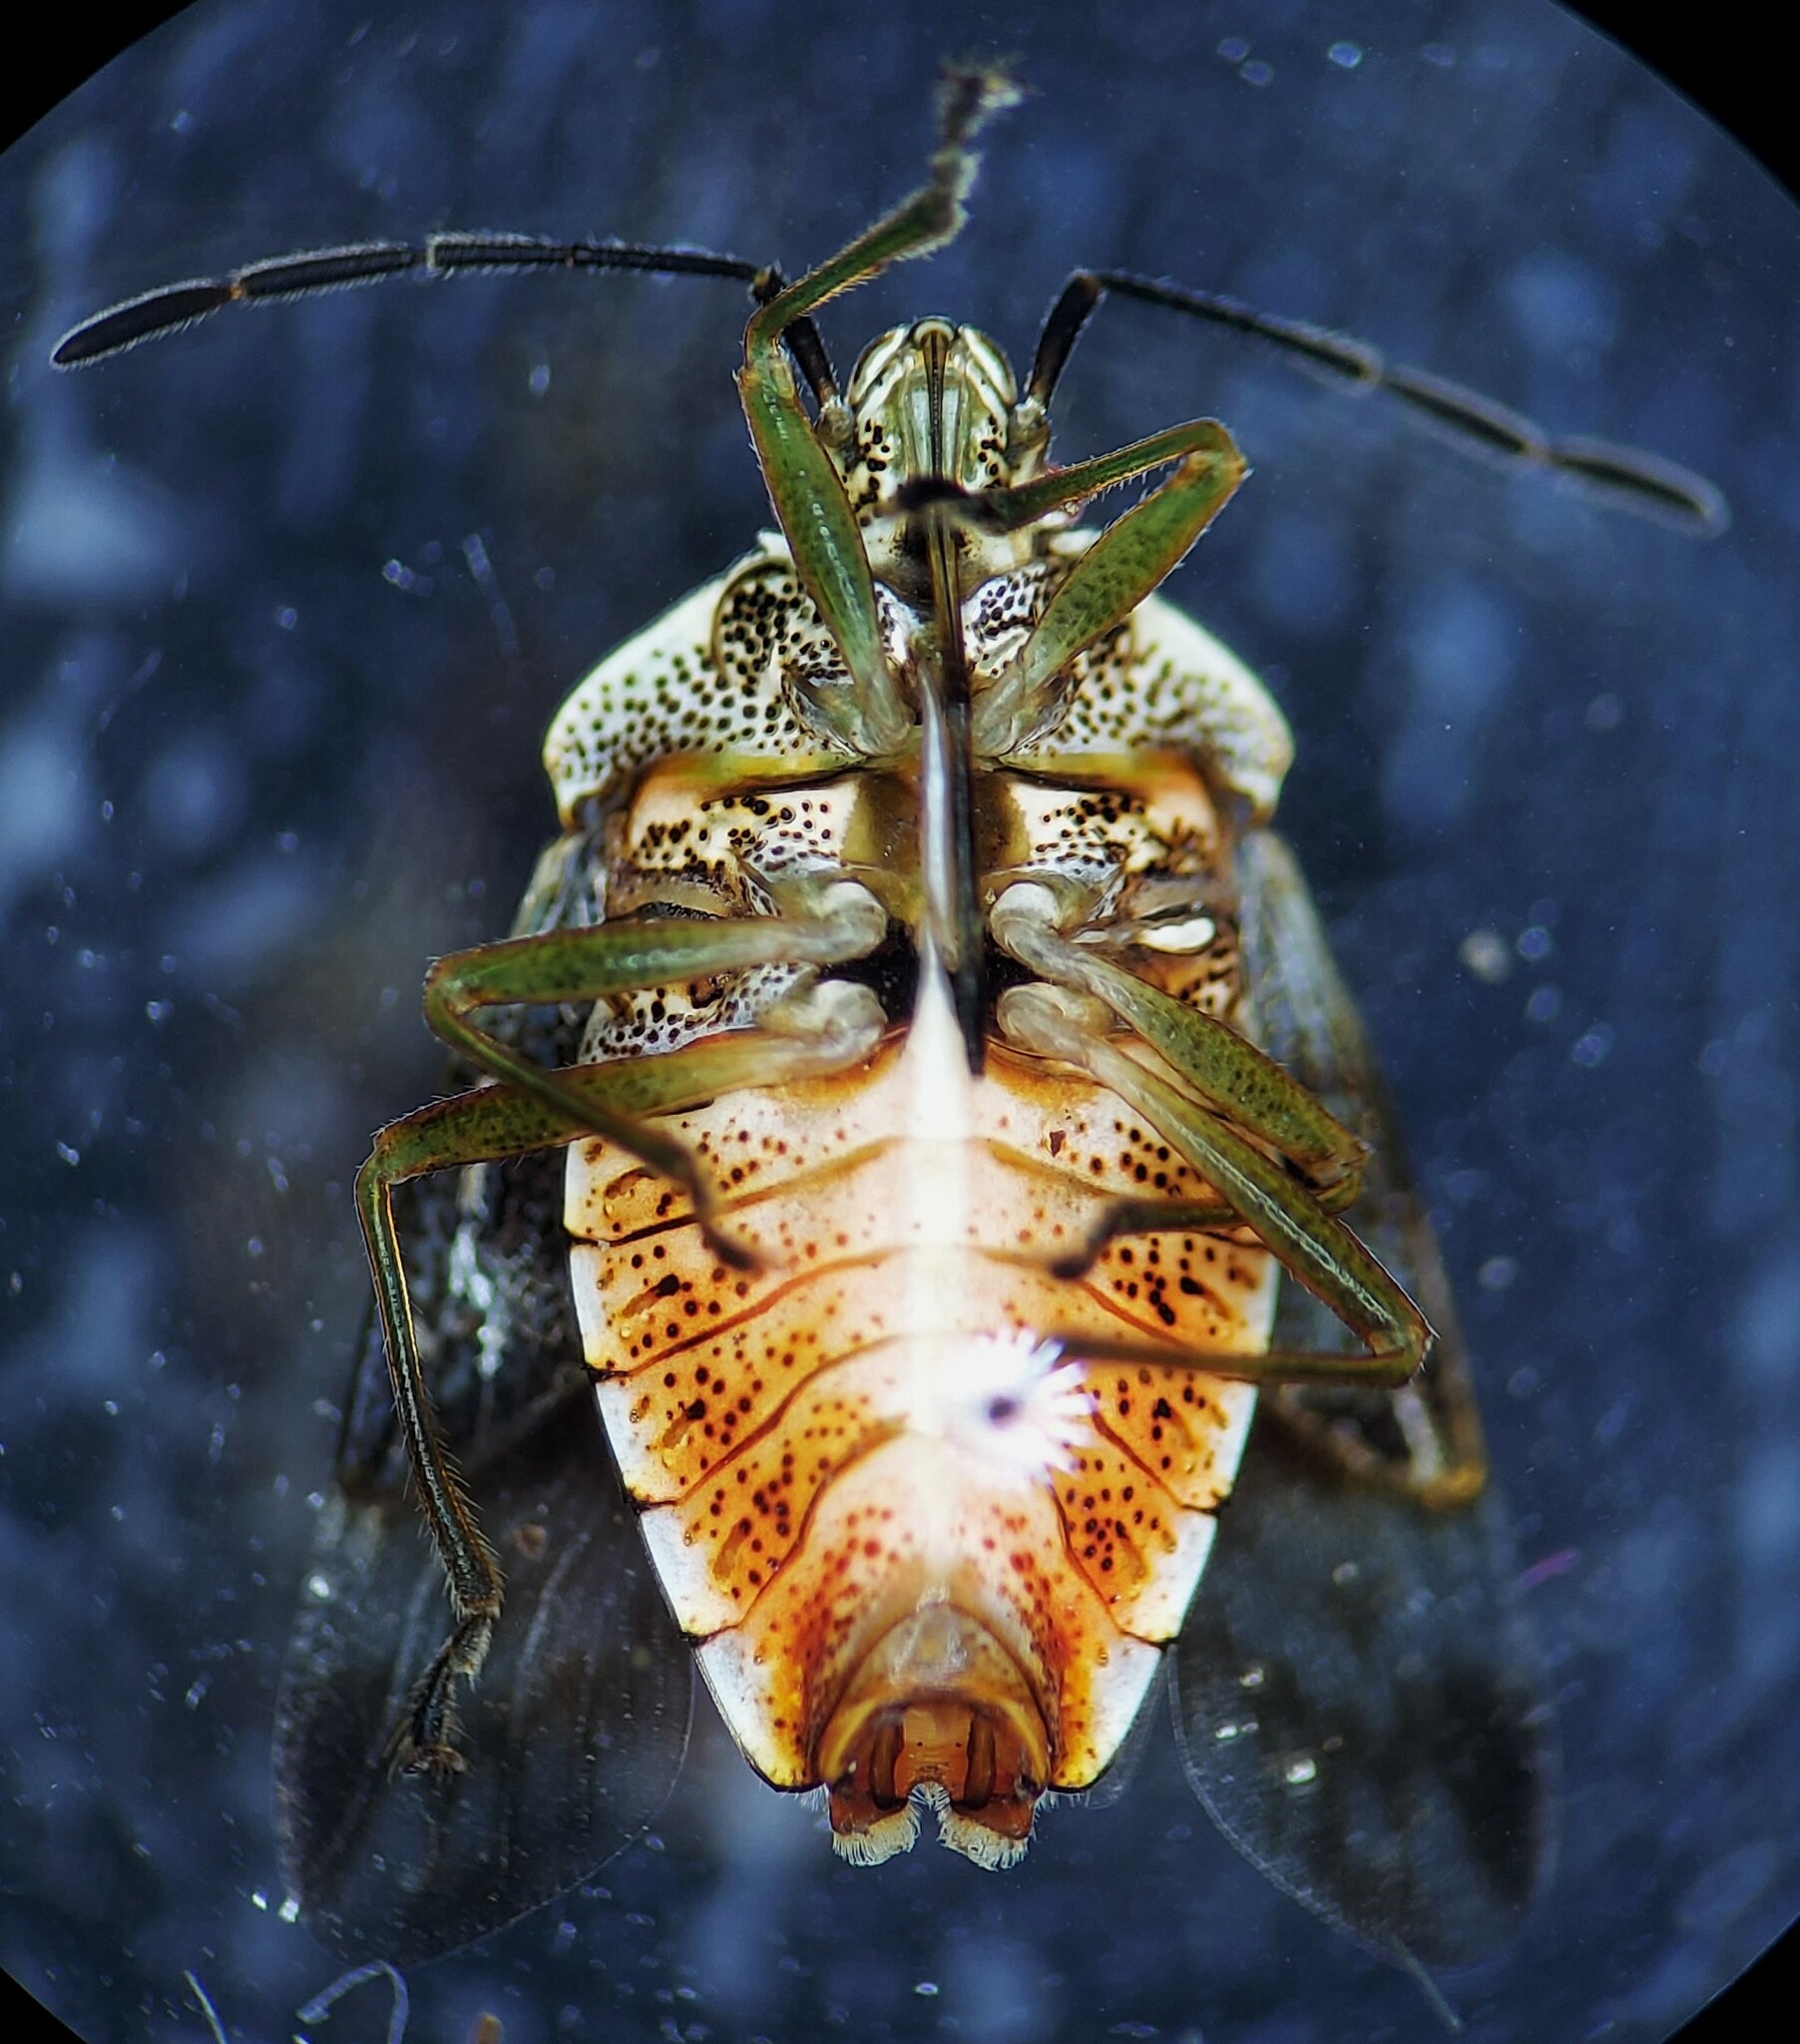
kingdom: Animalia
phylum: Arthropoda
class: Insecta
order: Hemiptera
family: Acanthosomatidae
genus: Elasmucha
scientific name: Elasmucha lateralis
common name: Shield bug
